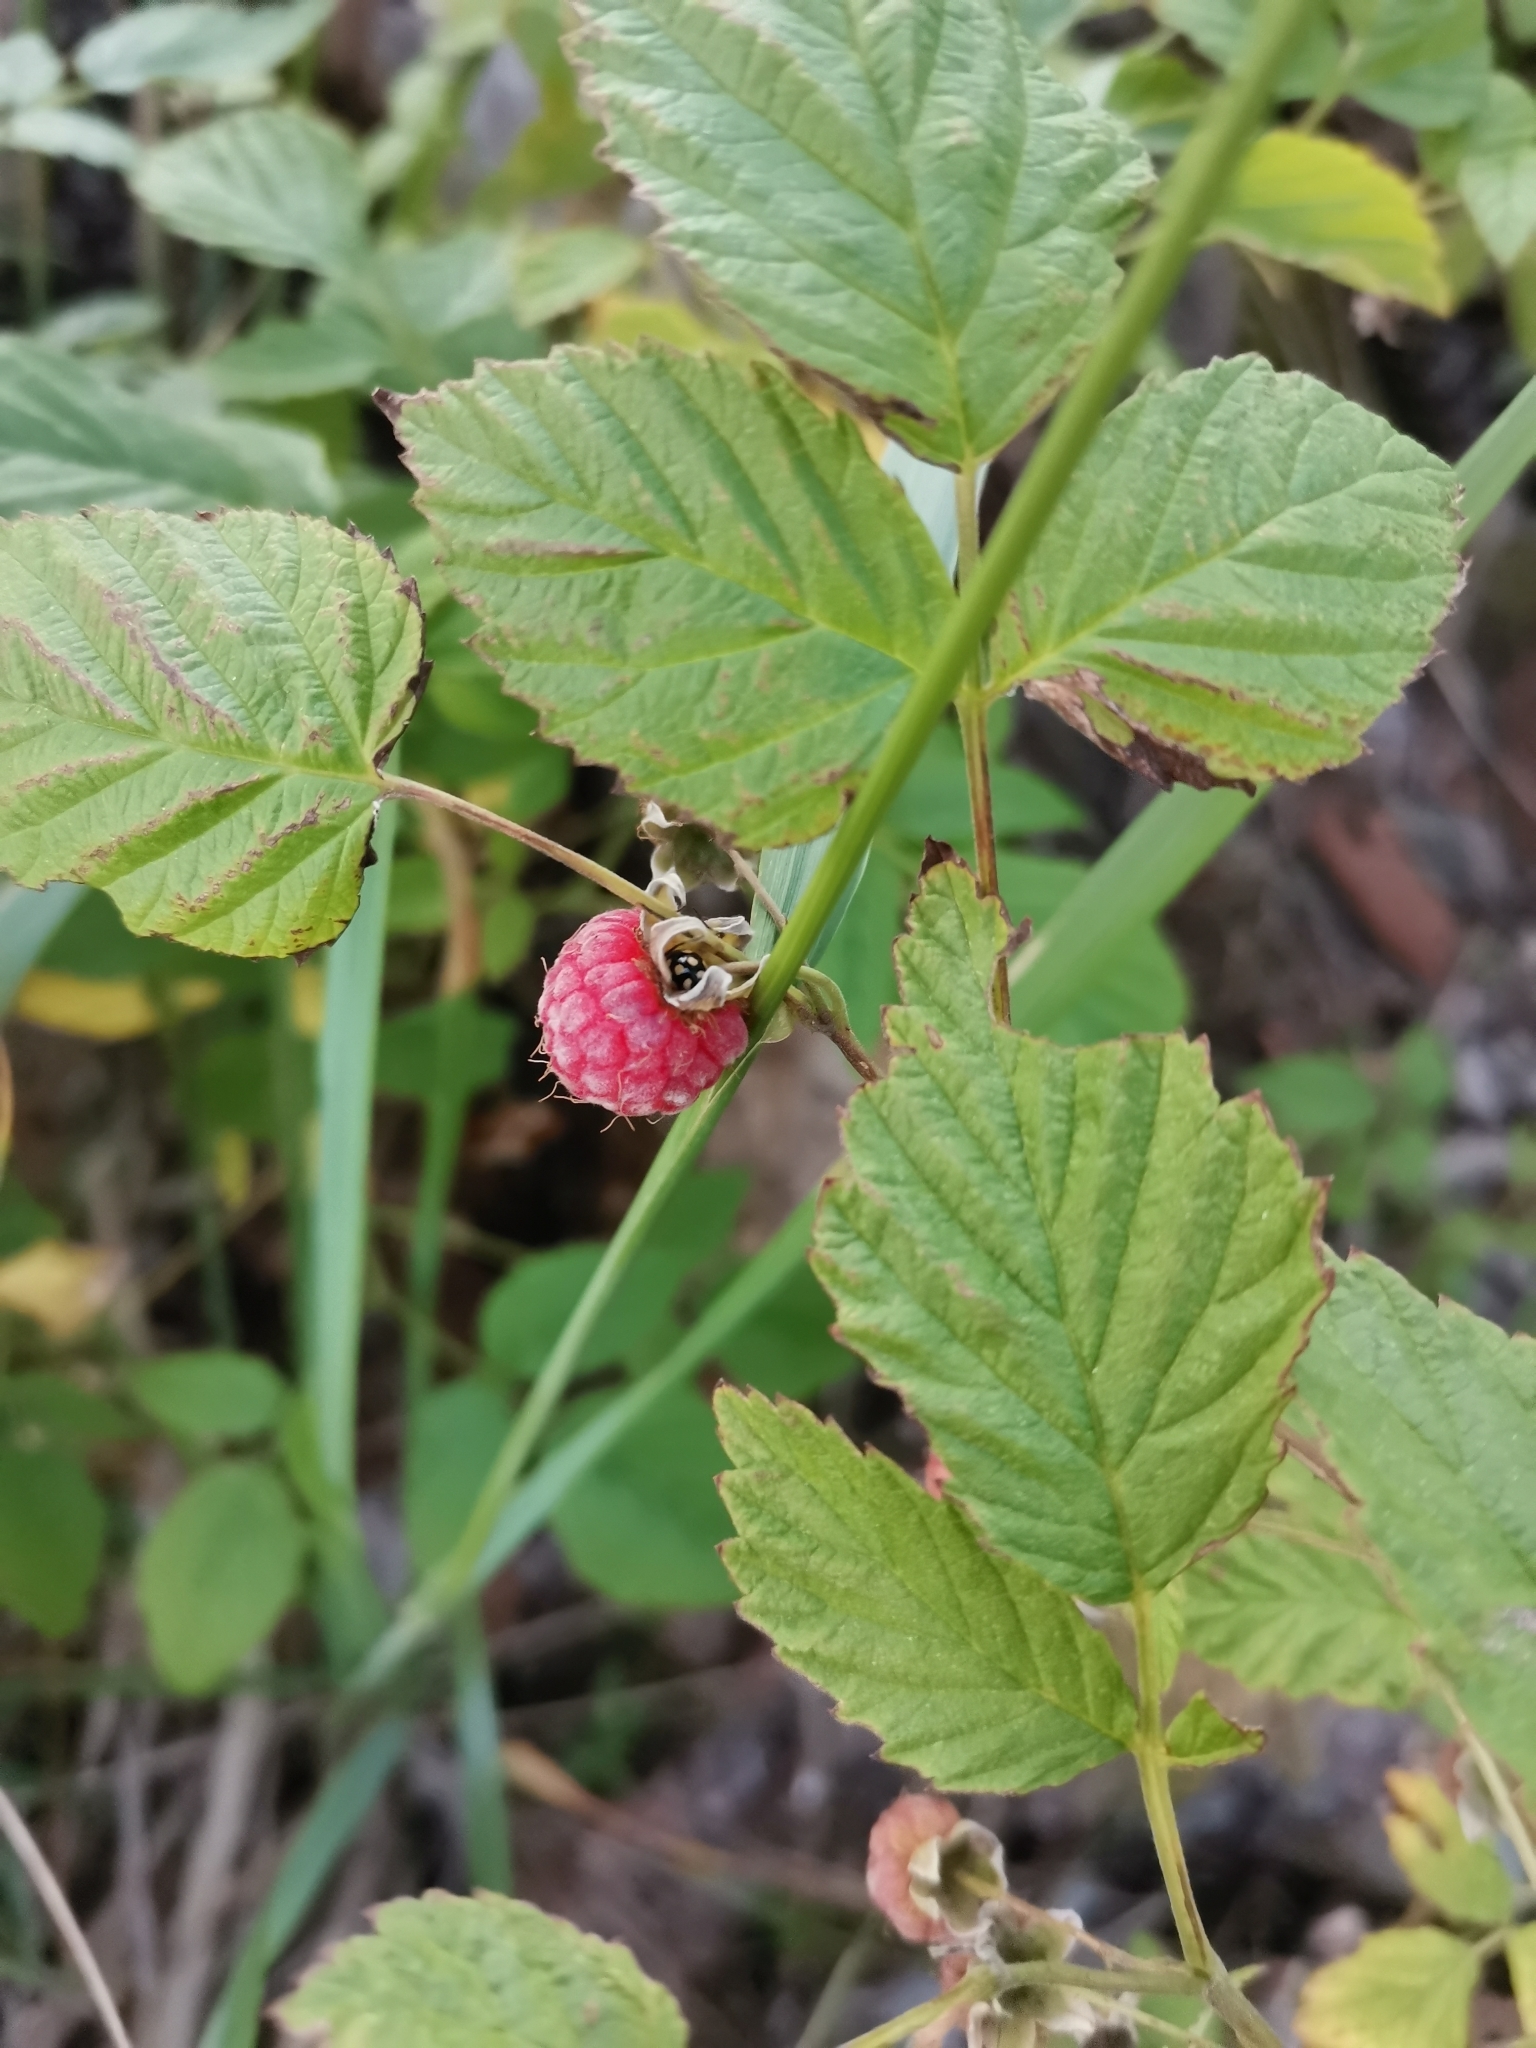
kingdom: Plantae
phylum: Tracheophyta
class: Magnoliopsida
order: Rosales
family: Rosaceae
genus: Rubus
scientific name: Rubus idaeus
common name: Raspberry
